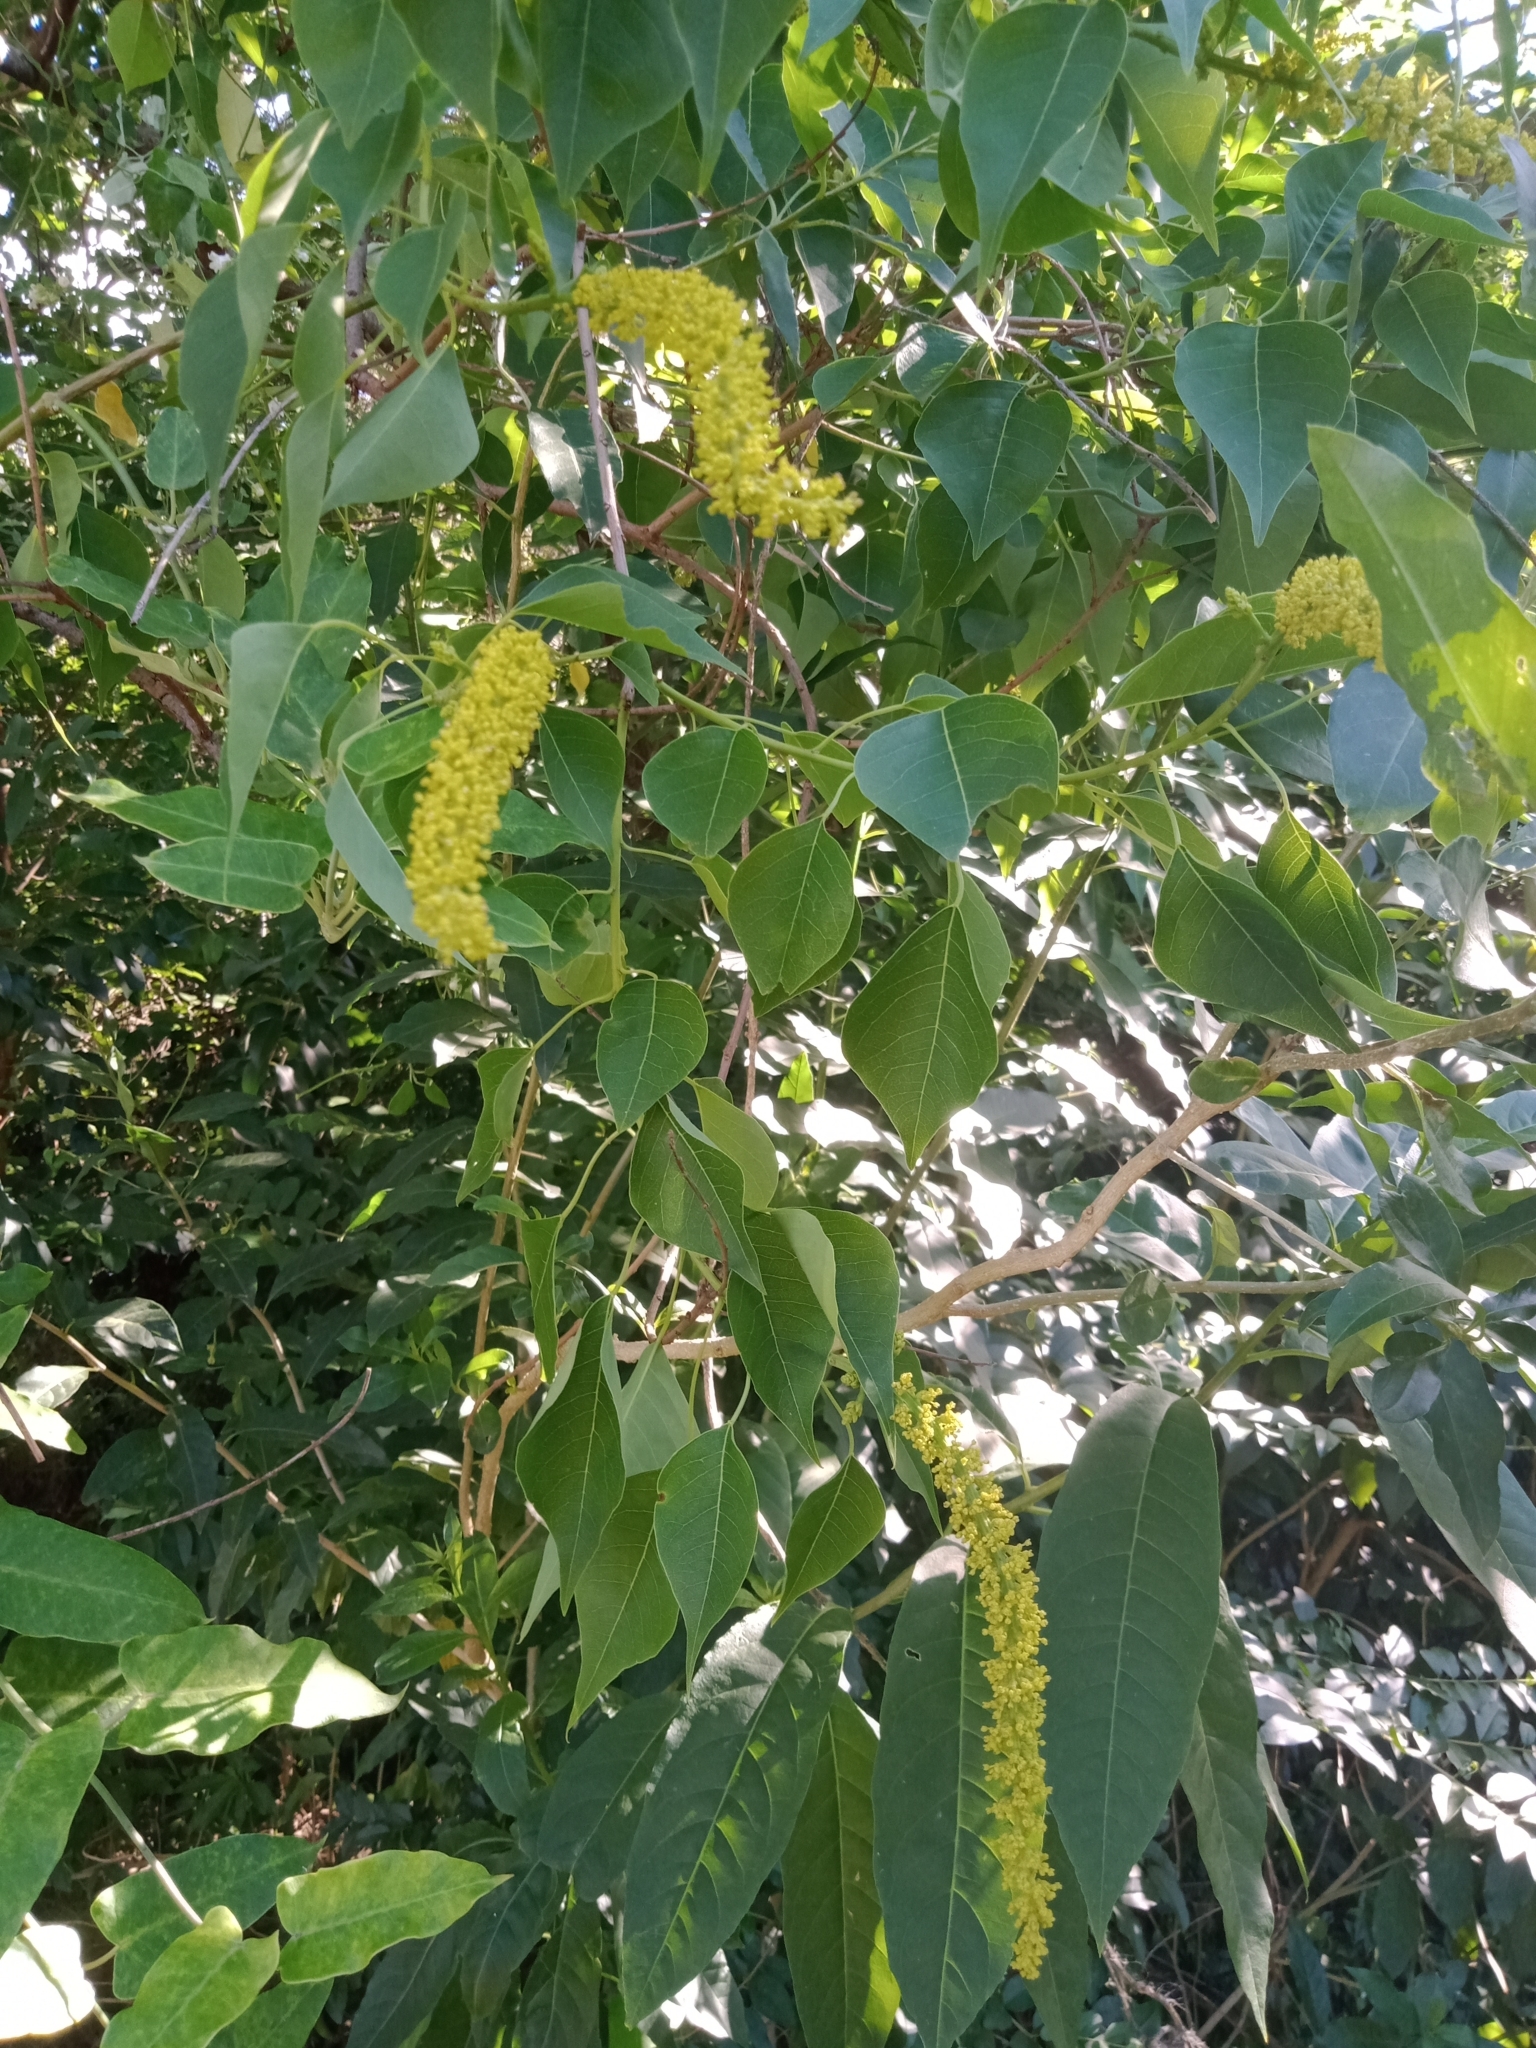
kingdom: Plantae
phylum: Tracheophyta
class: Magnoliopsida
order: Malpighiales
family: Euphorbiaceae
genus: Triadica
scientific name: Triadica sebifera
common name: Chinese tallow
